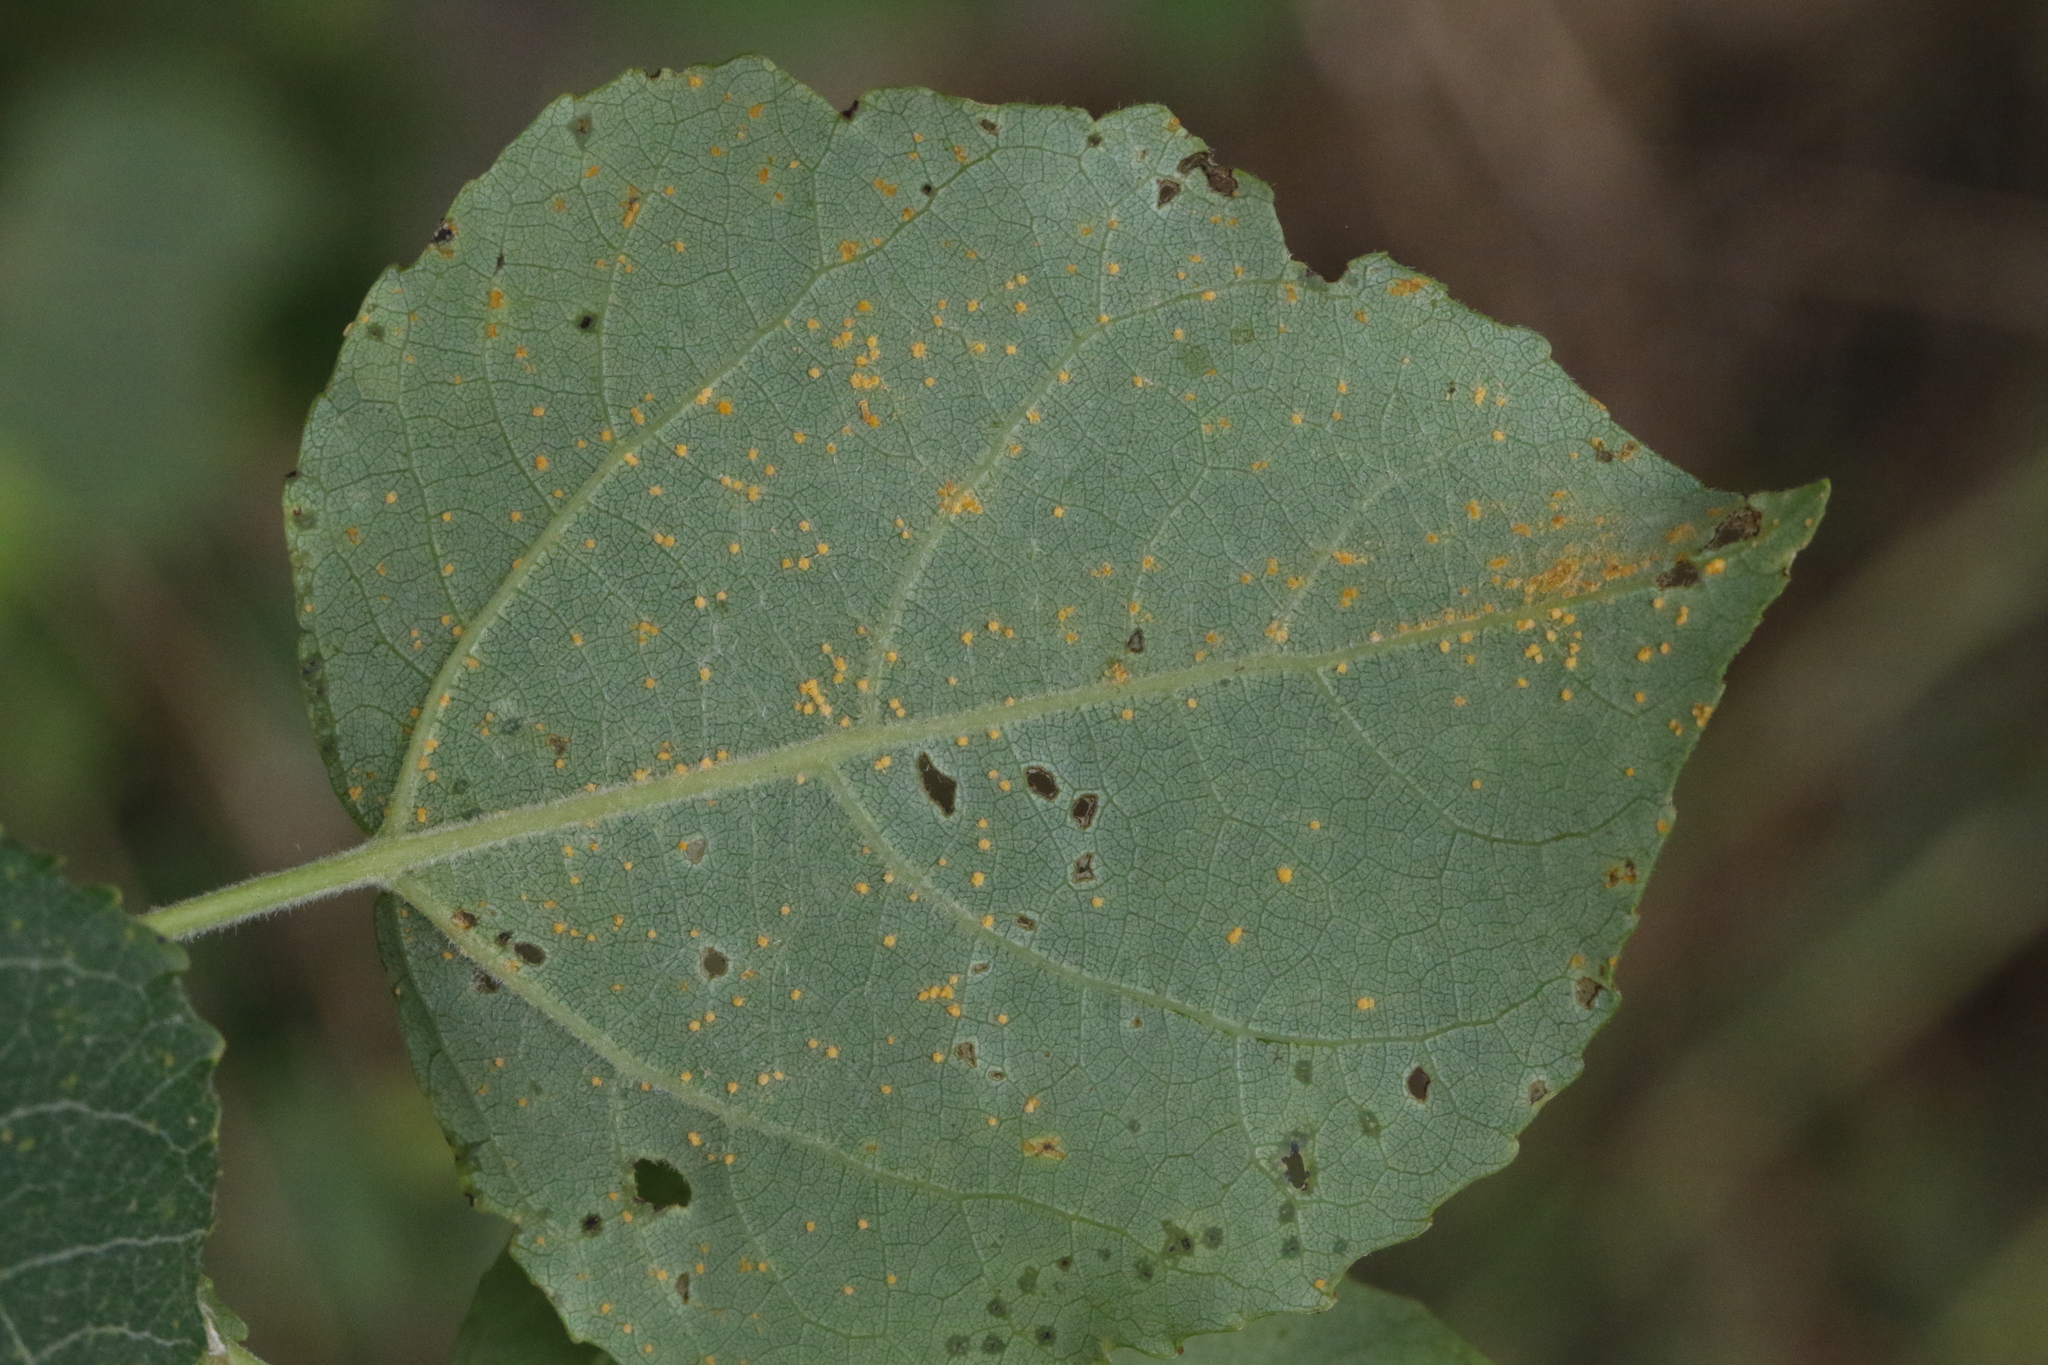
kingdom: Plantae
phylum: Tracheophyta
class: Magnoliopsida
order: Malpighiales
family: Salicaceae
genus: Populus
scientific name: Populus tremula
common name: European aspen
